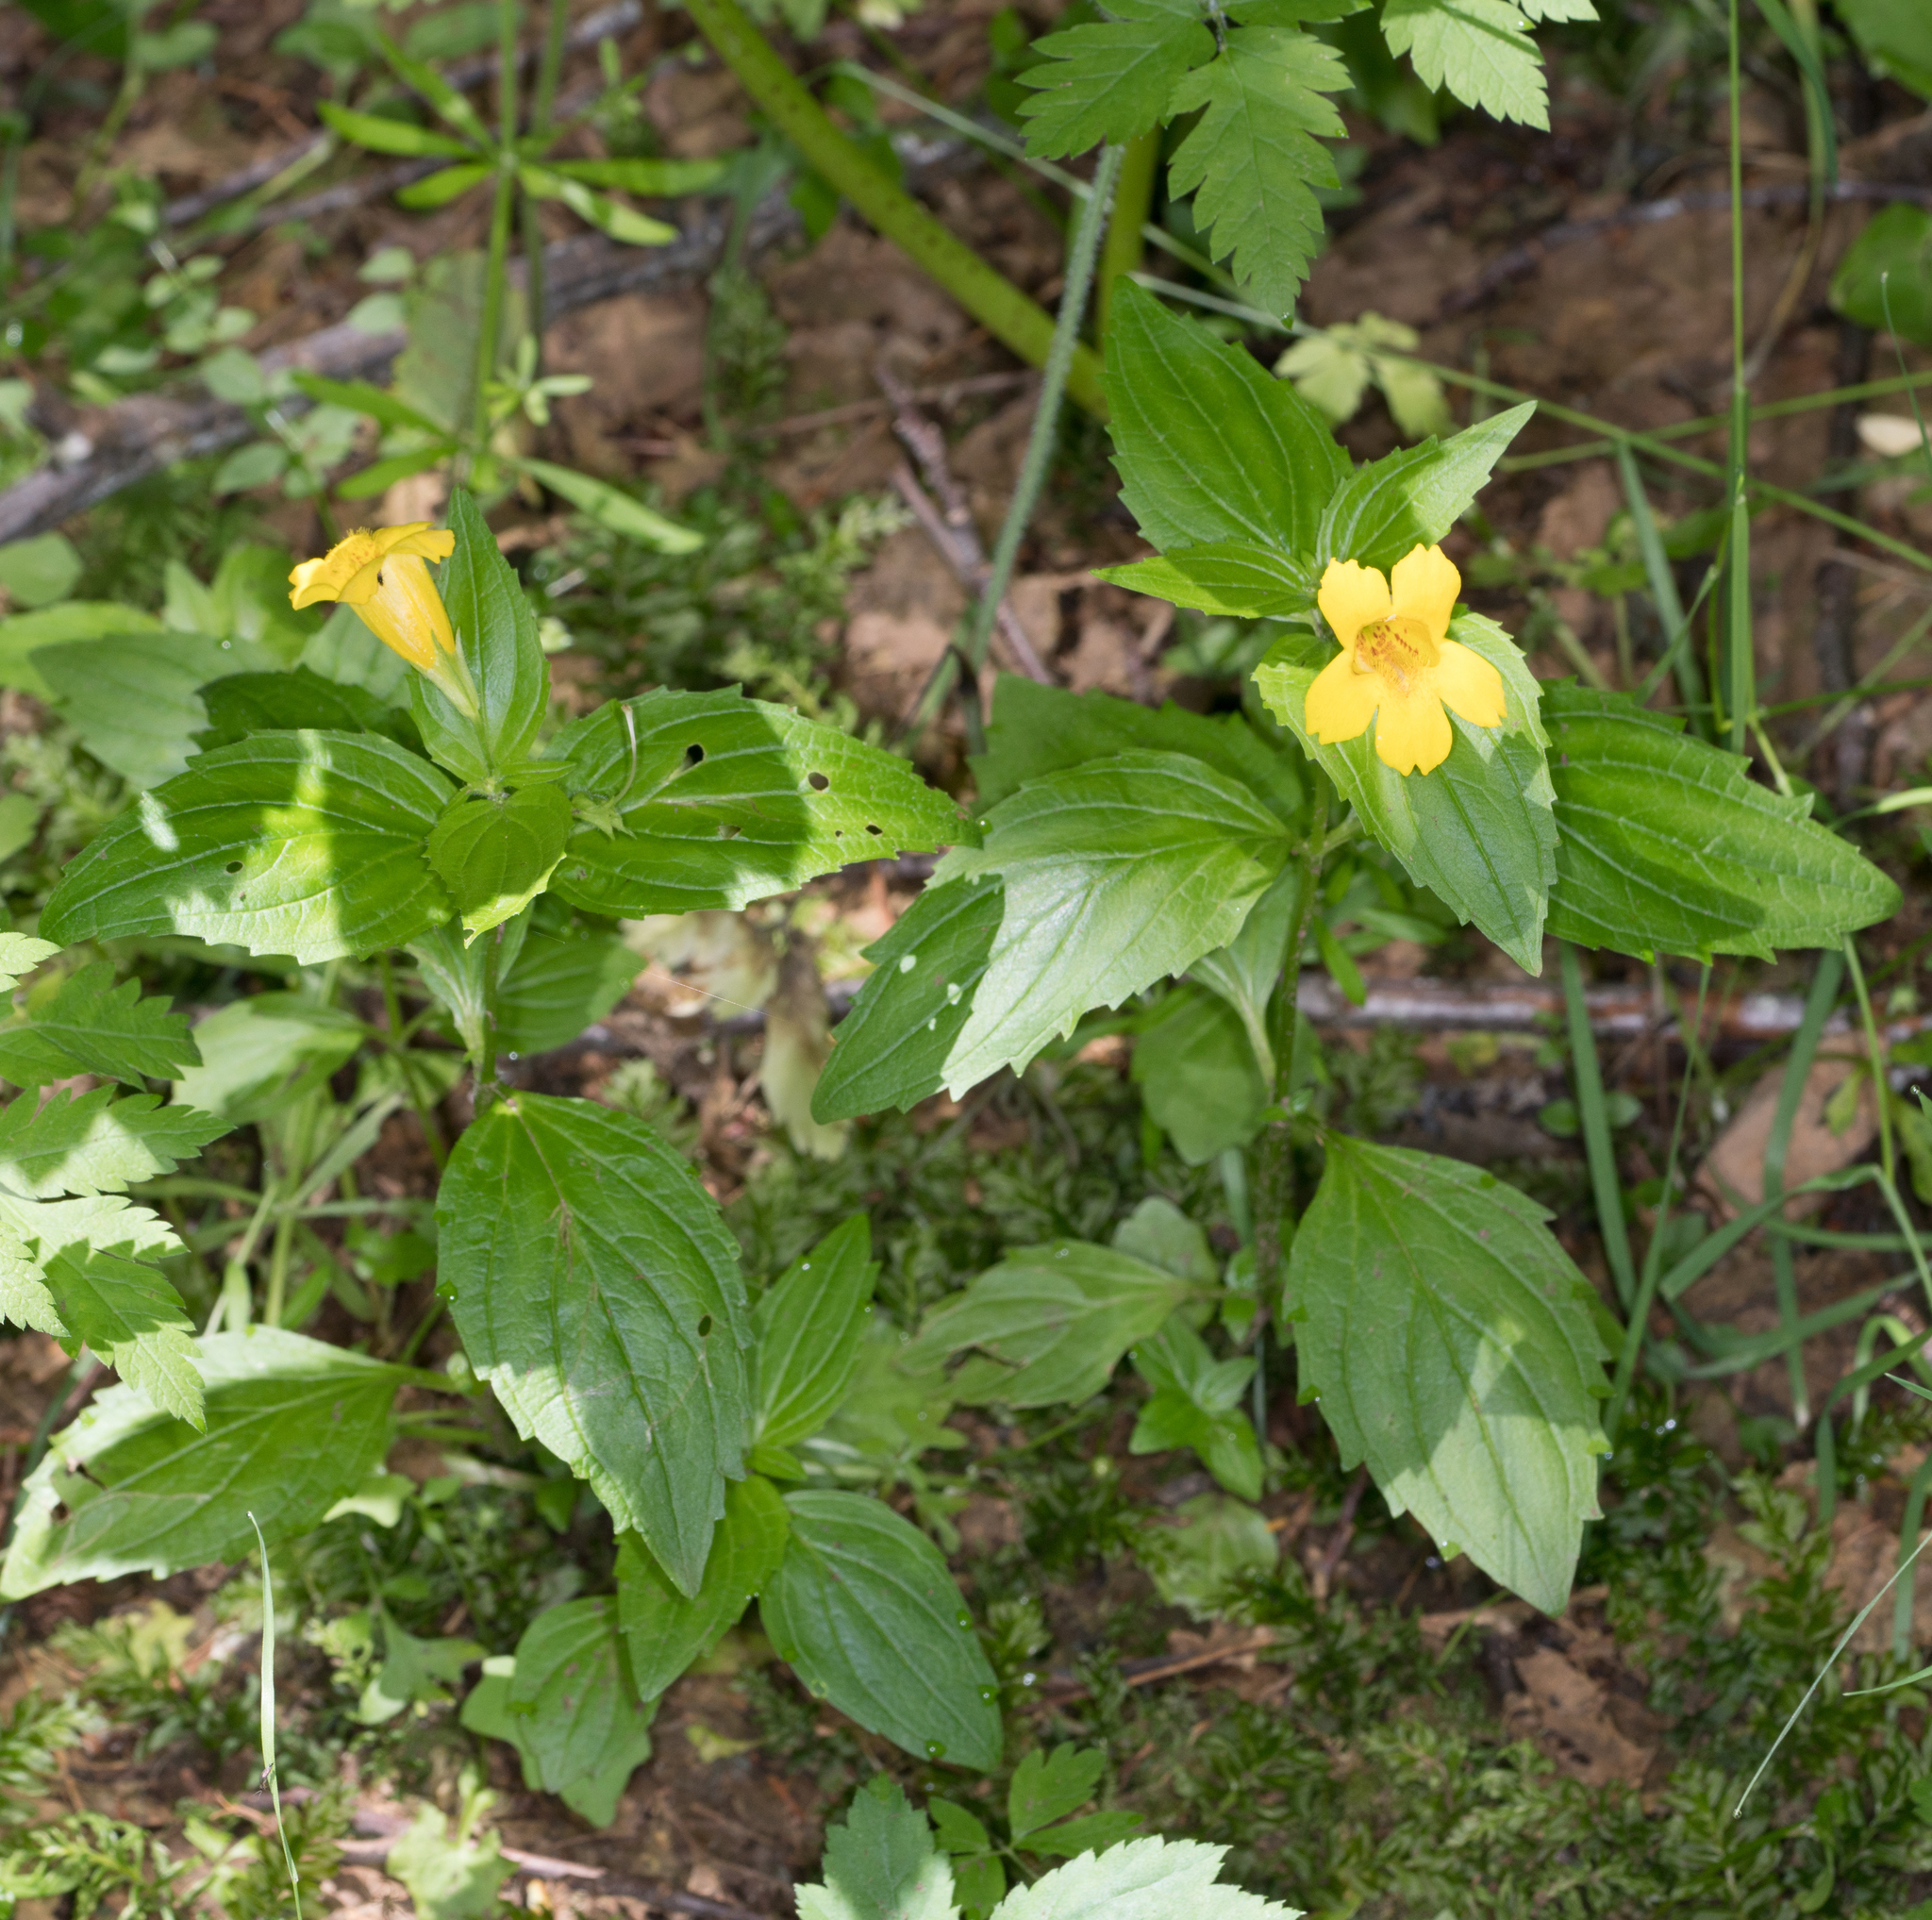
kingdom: Plantae
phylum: Tracheophyta
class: Magnoliopsida
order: Lamiales
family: Phrymaceae
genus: Erythranthe
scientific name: Erythranthe dentata
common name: Coastal monkeyflower
